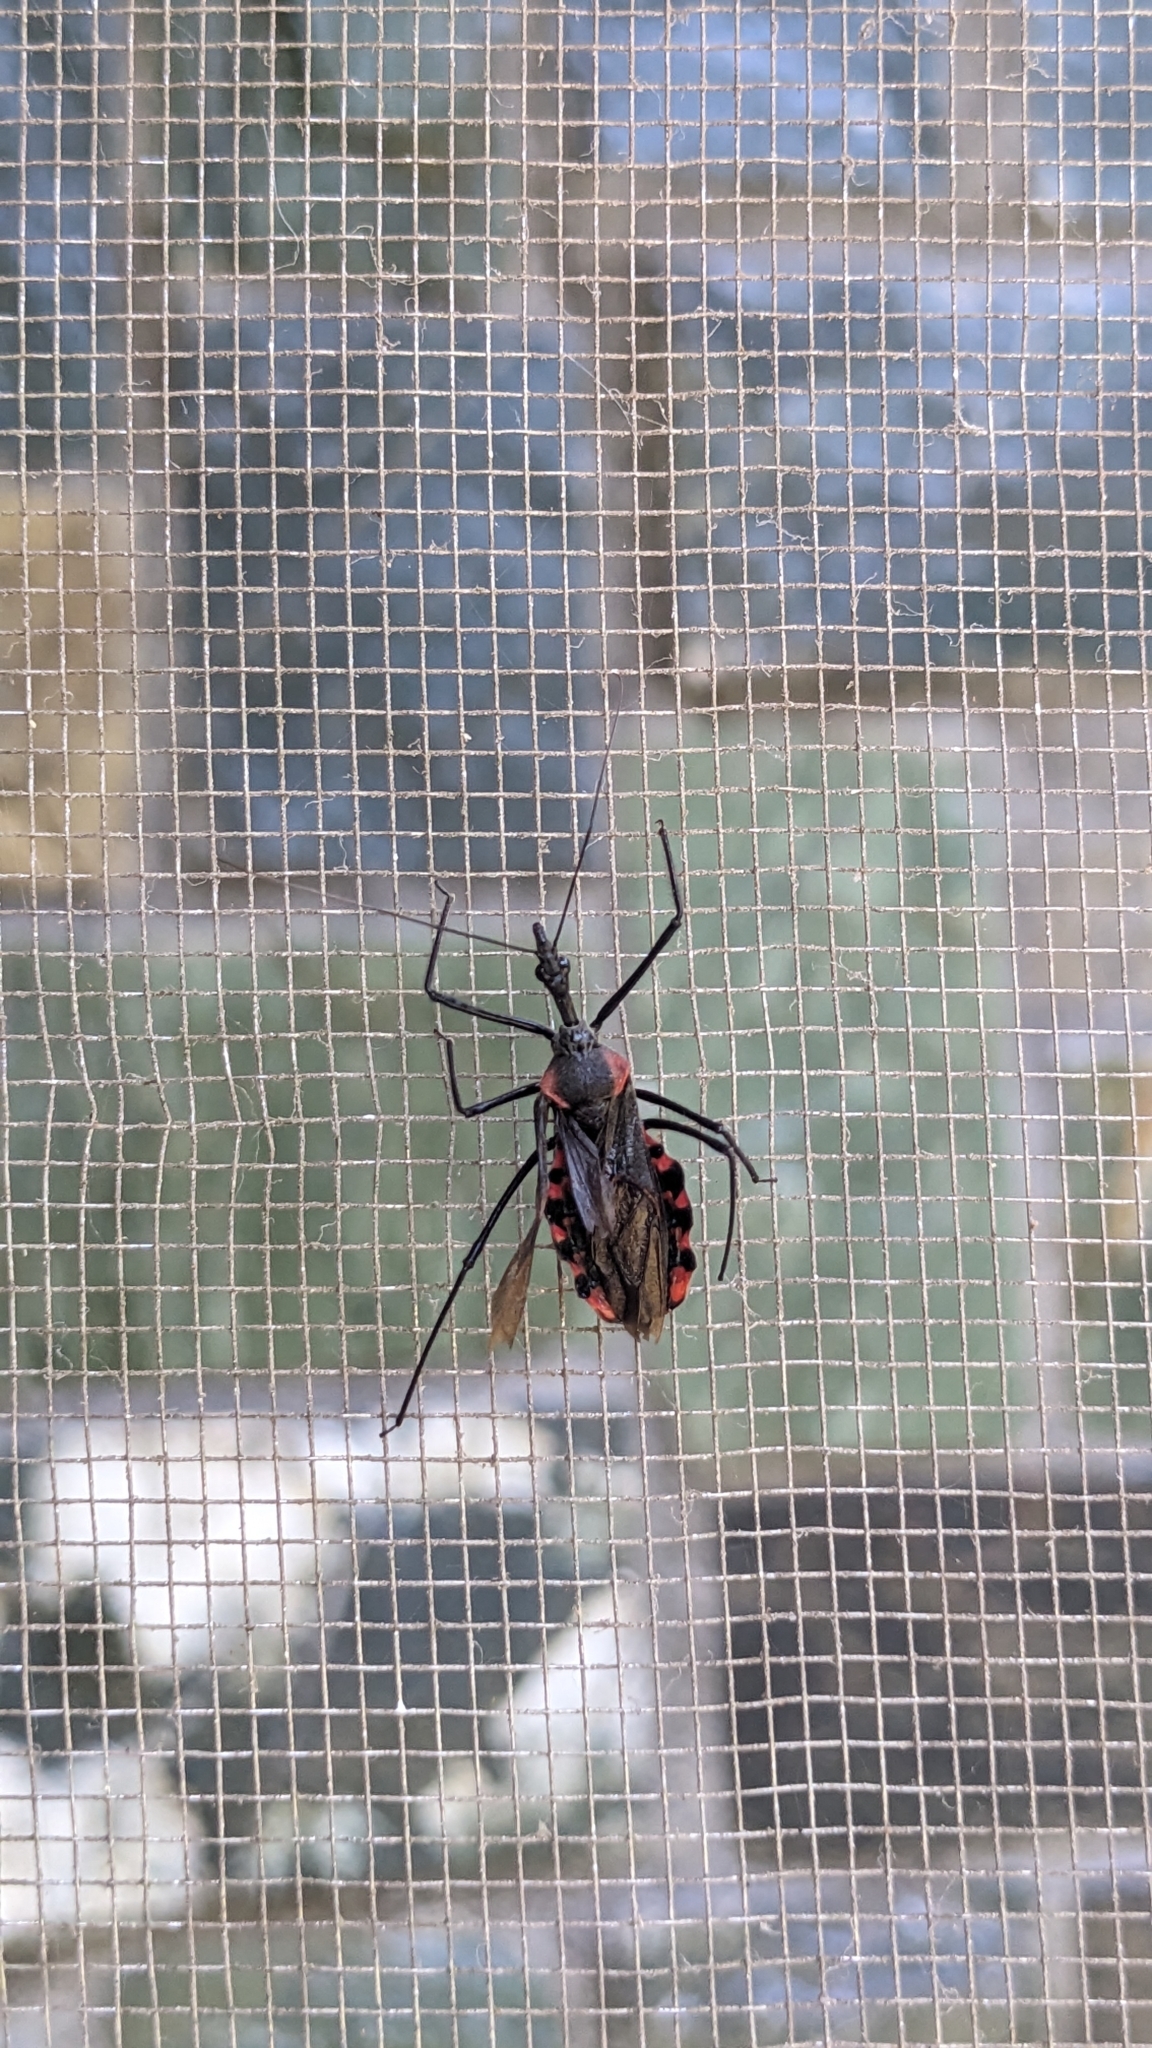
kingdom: Animalia
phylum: Arthropoda
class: Insecta
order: Hemiptera
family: Reduviidae
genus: Sycanus
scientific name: Sycanus
